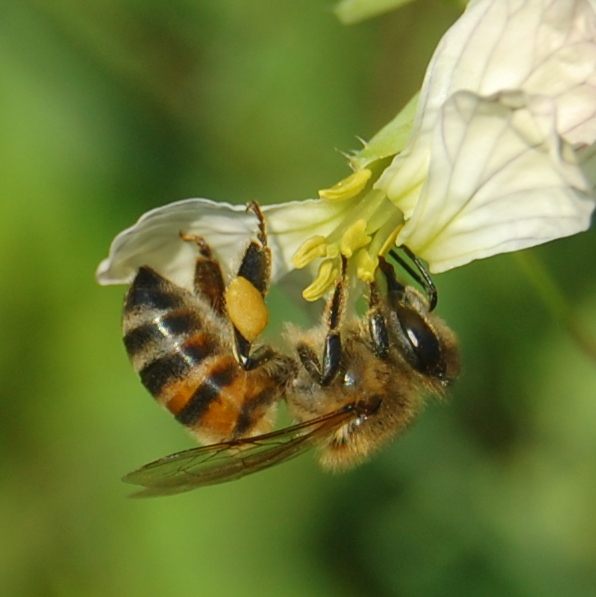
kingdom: Animalia
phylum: Arthropoda
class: Insecta
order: Hymenoptera
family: Apidae
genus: Apis
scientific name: Apis mellifera
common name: Honey bee
